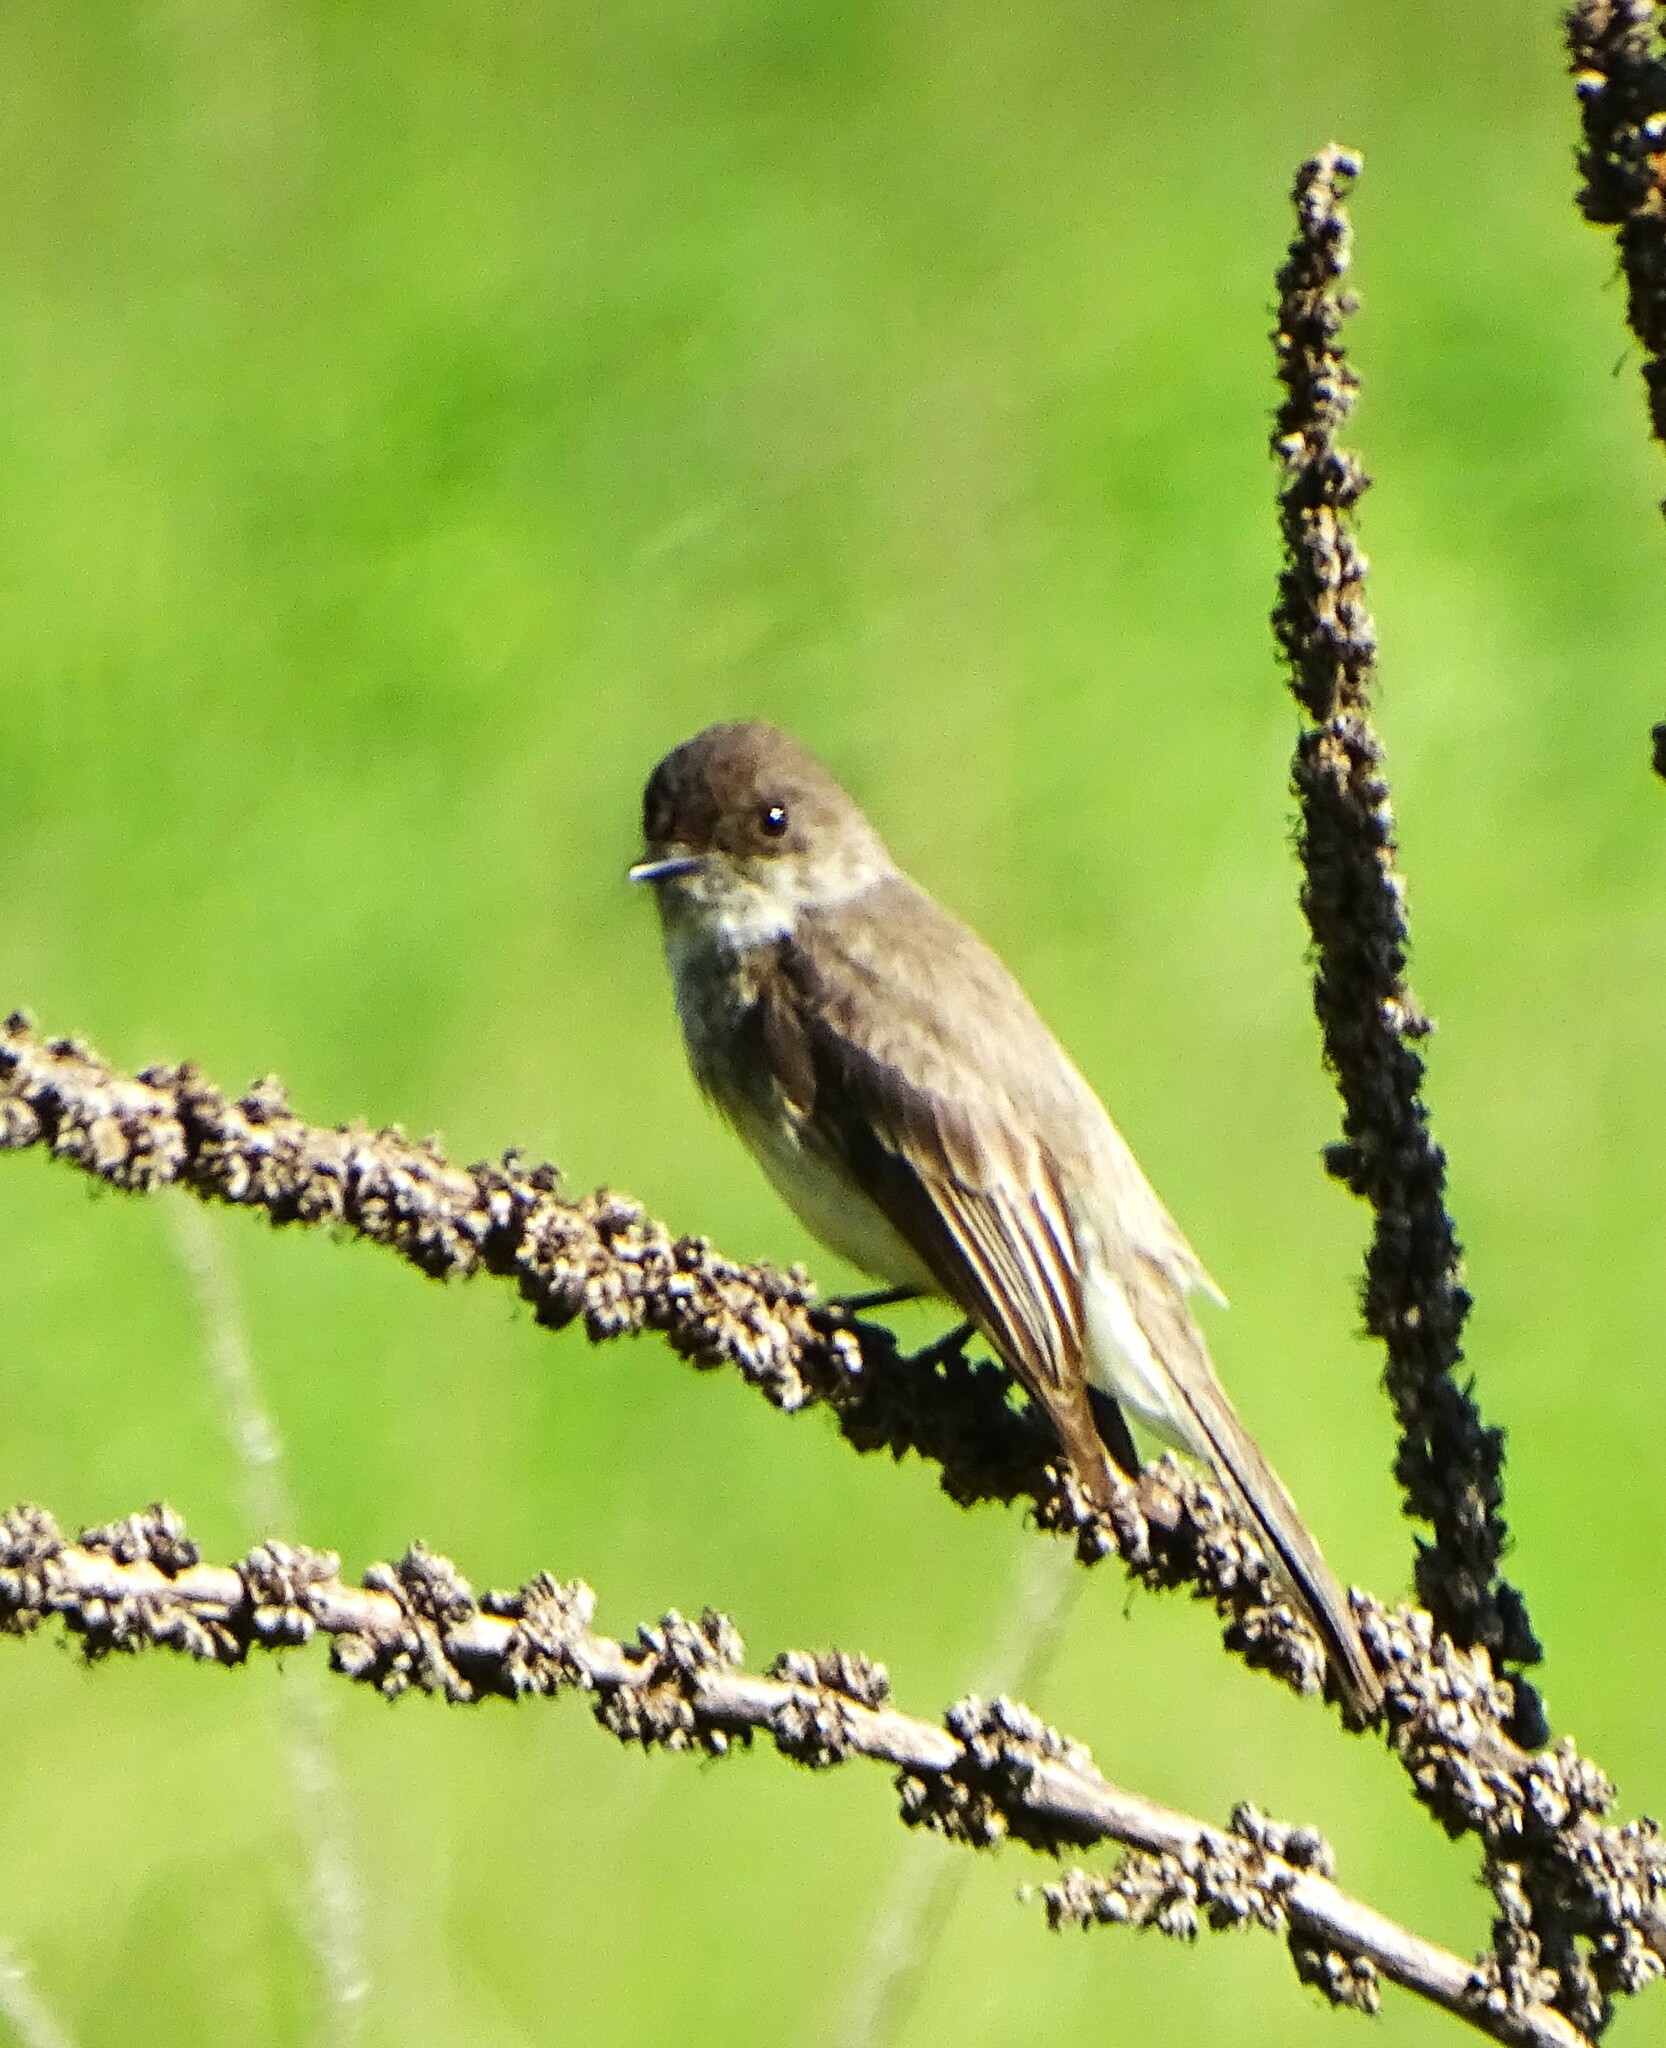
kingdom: Animalia
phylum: Chordata
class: Aves
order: Passeriformes
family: Tyrannidae
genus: Sayornis
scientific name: Sayornis phoebe
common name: Eastern phoebe
